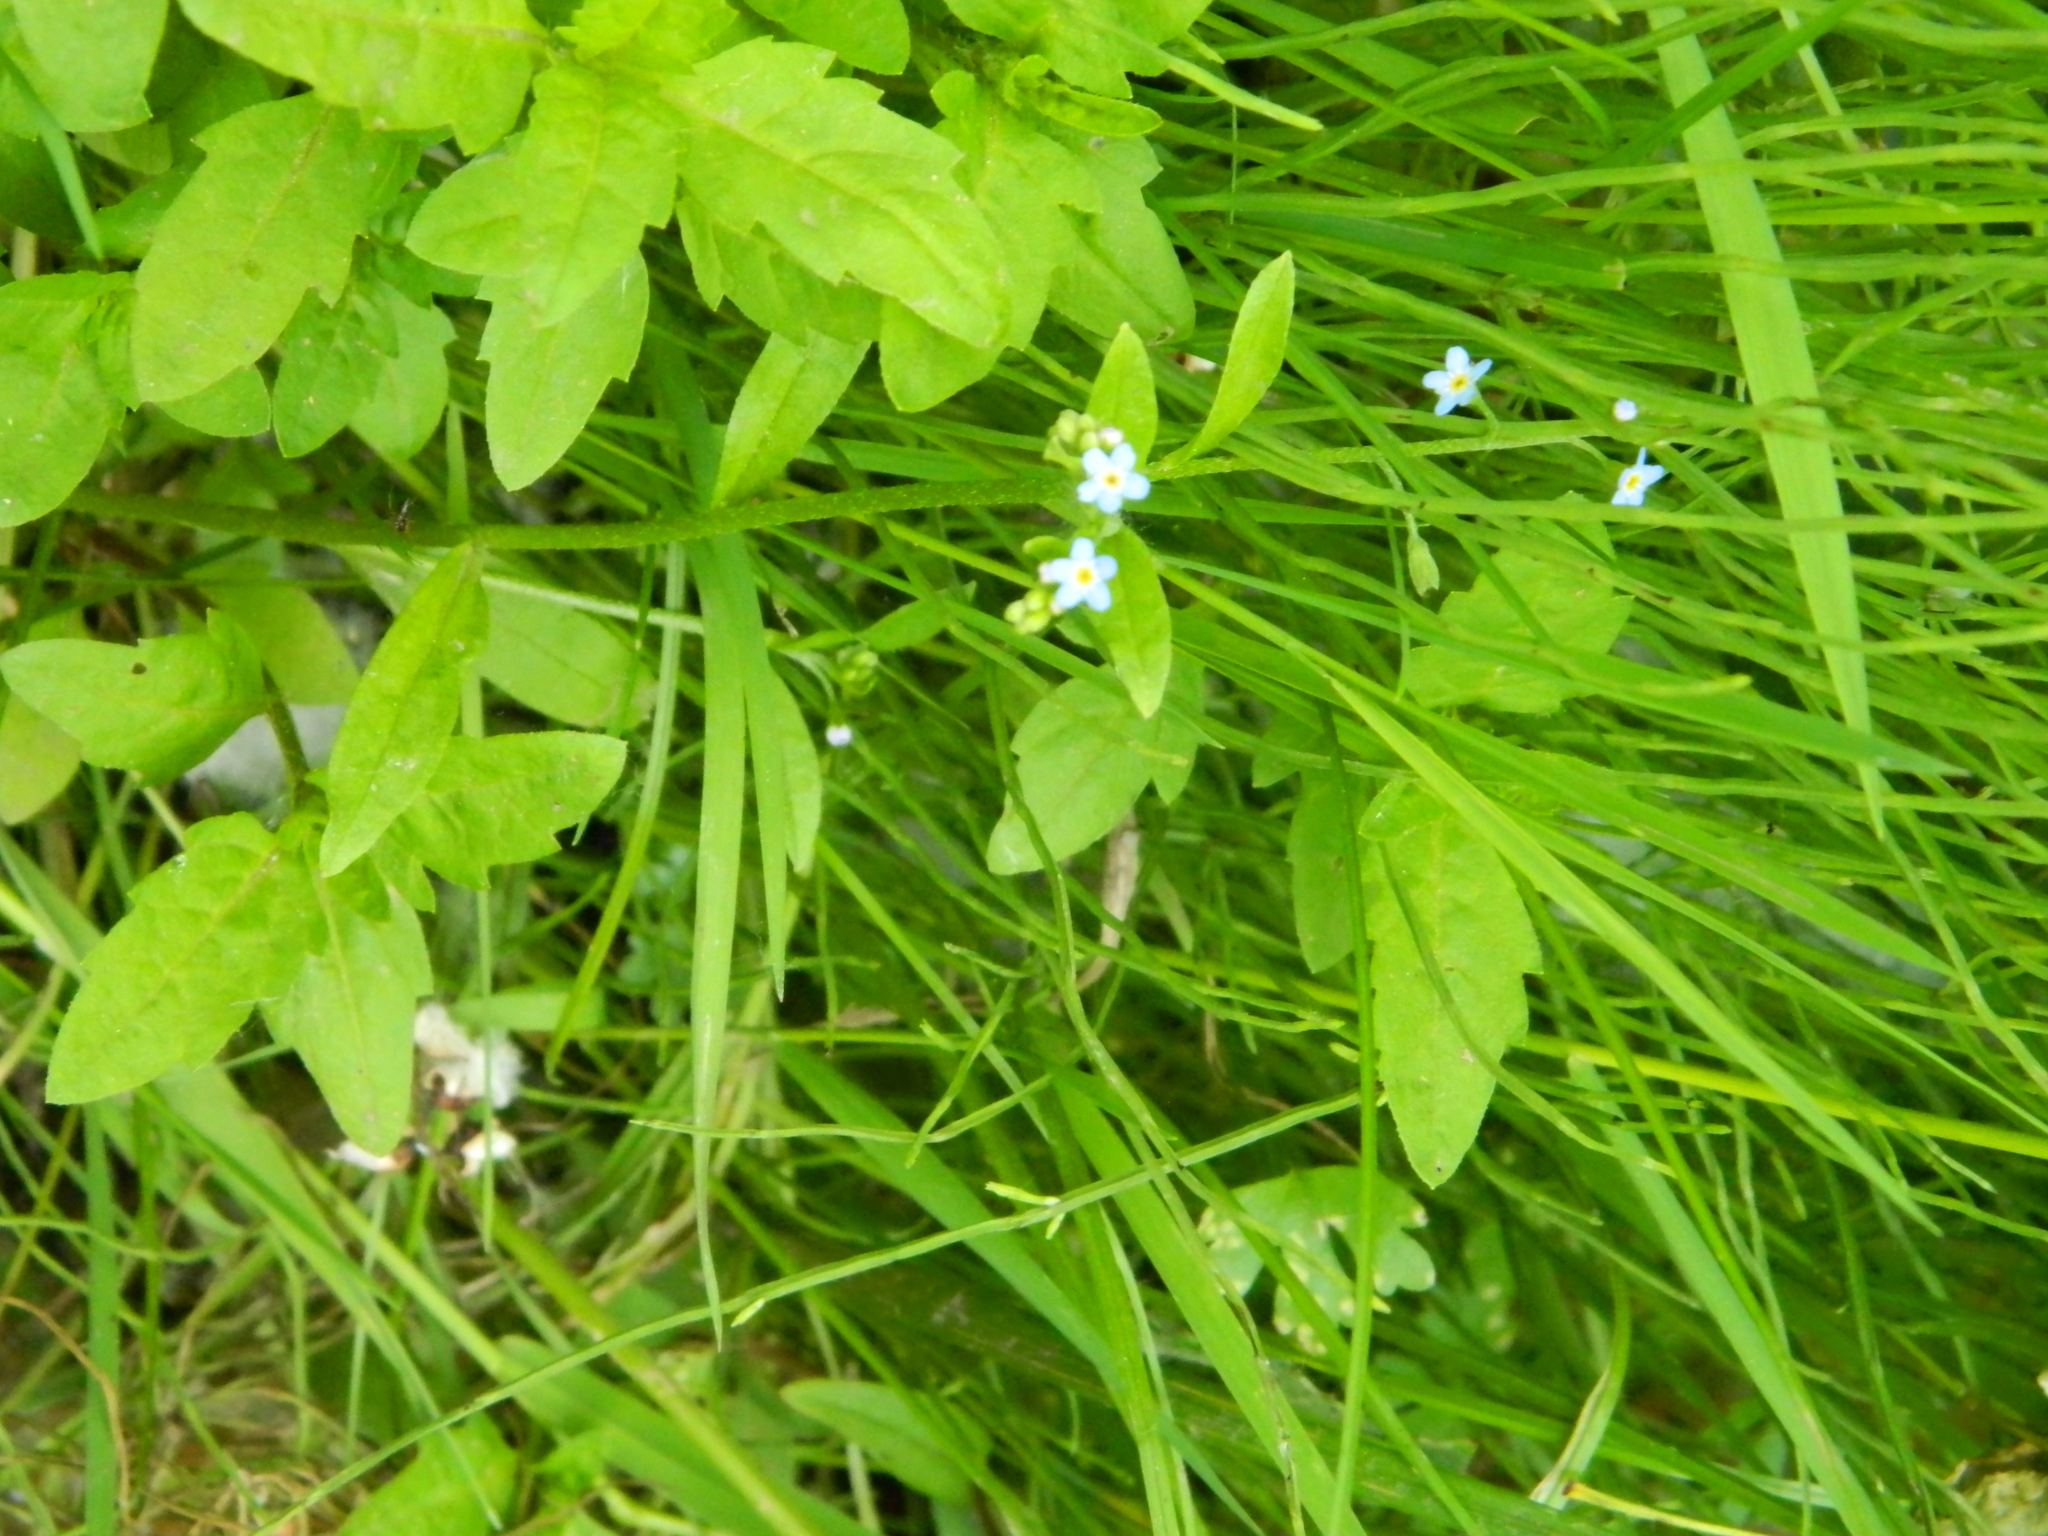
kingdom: Plantae
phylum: Tracheophyta
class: Magnoliopsida
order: Boraginales
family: Boraginaceae
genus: Myosotis
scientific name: Myosotis scorpioides
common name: Water forget-me-not
